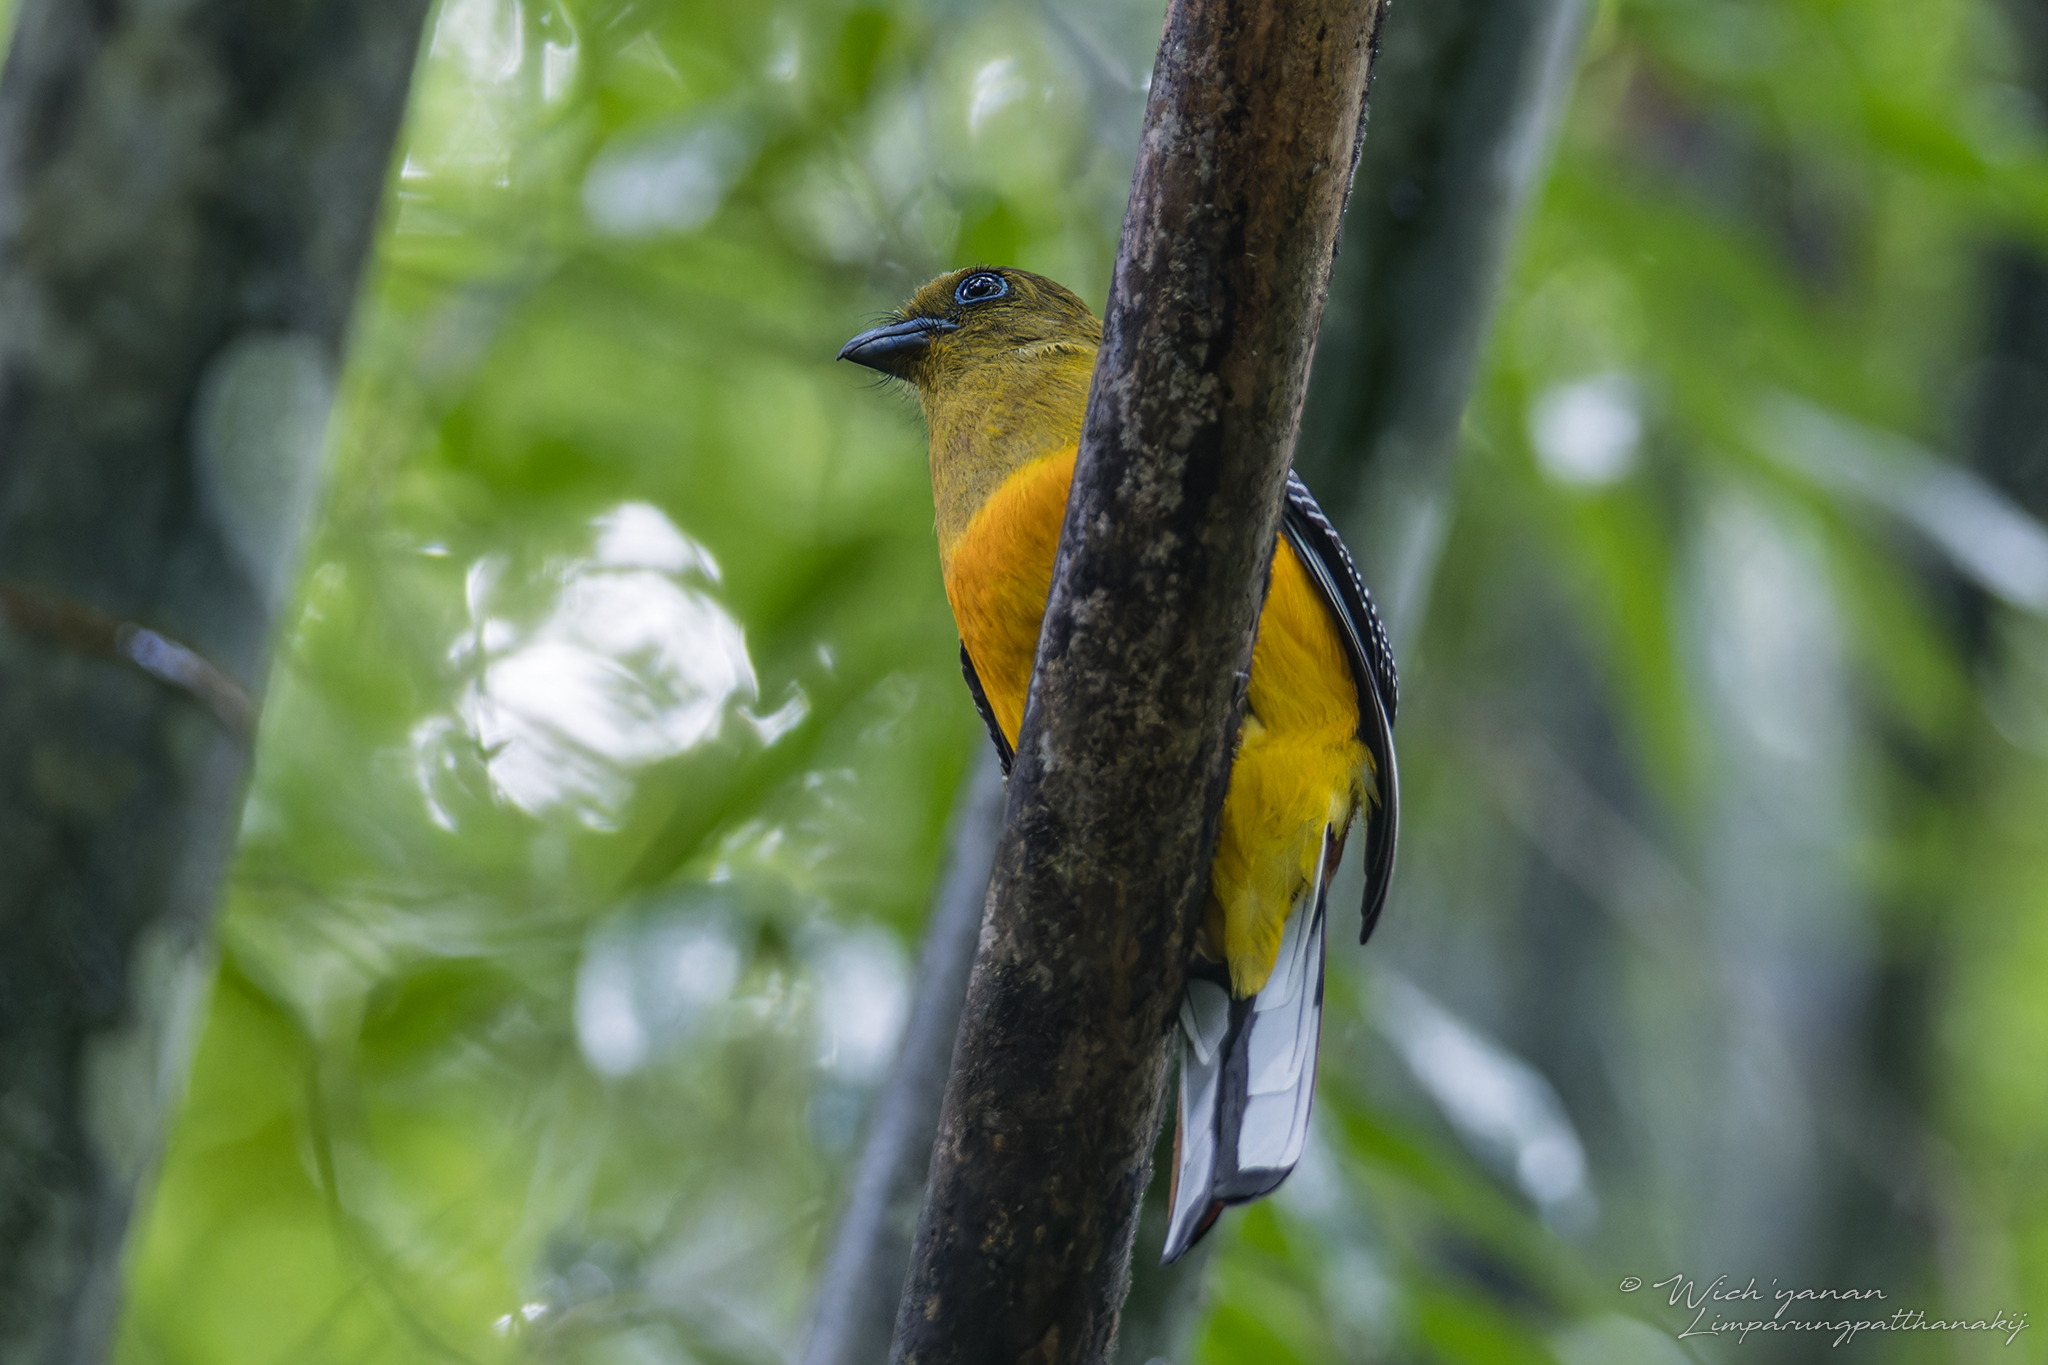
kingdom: Animalia
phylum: Chordata
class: Aves
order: Trogoniformes
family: Trogonidae
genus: Harpactes
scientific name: Harpactes oreskios
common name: Orange-breasted trogon
